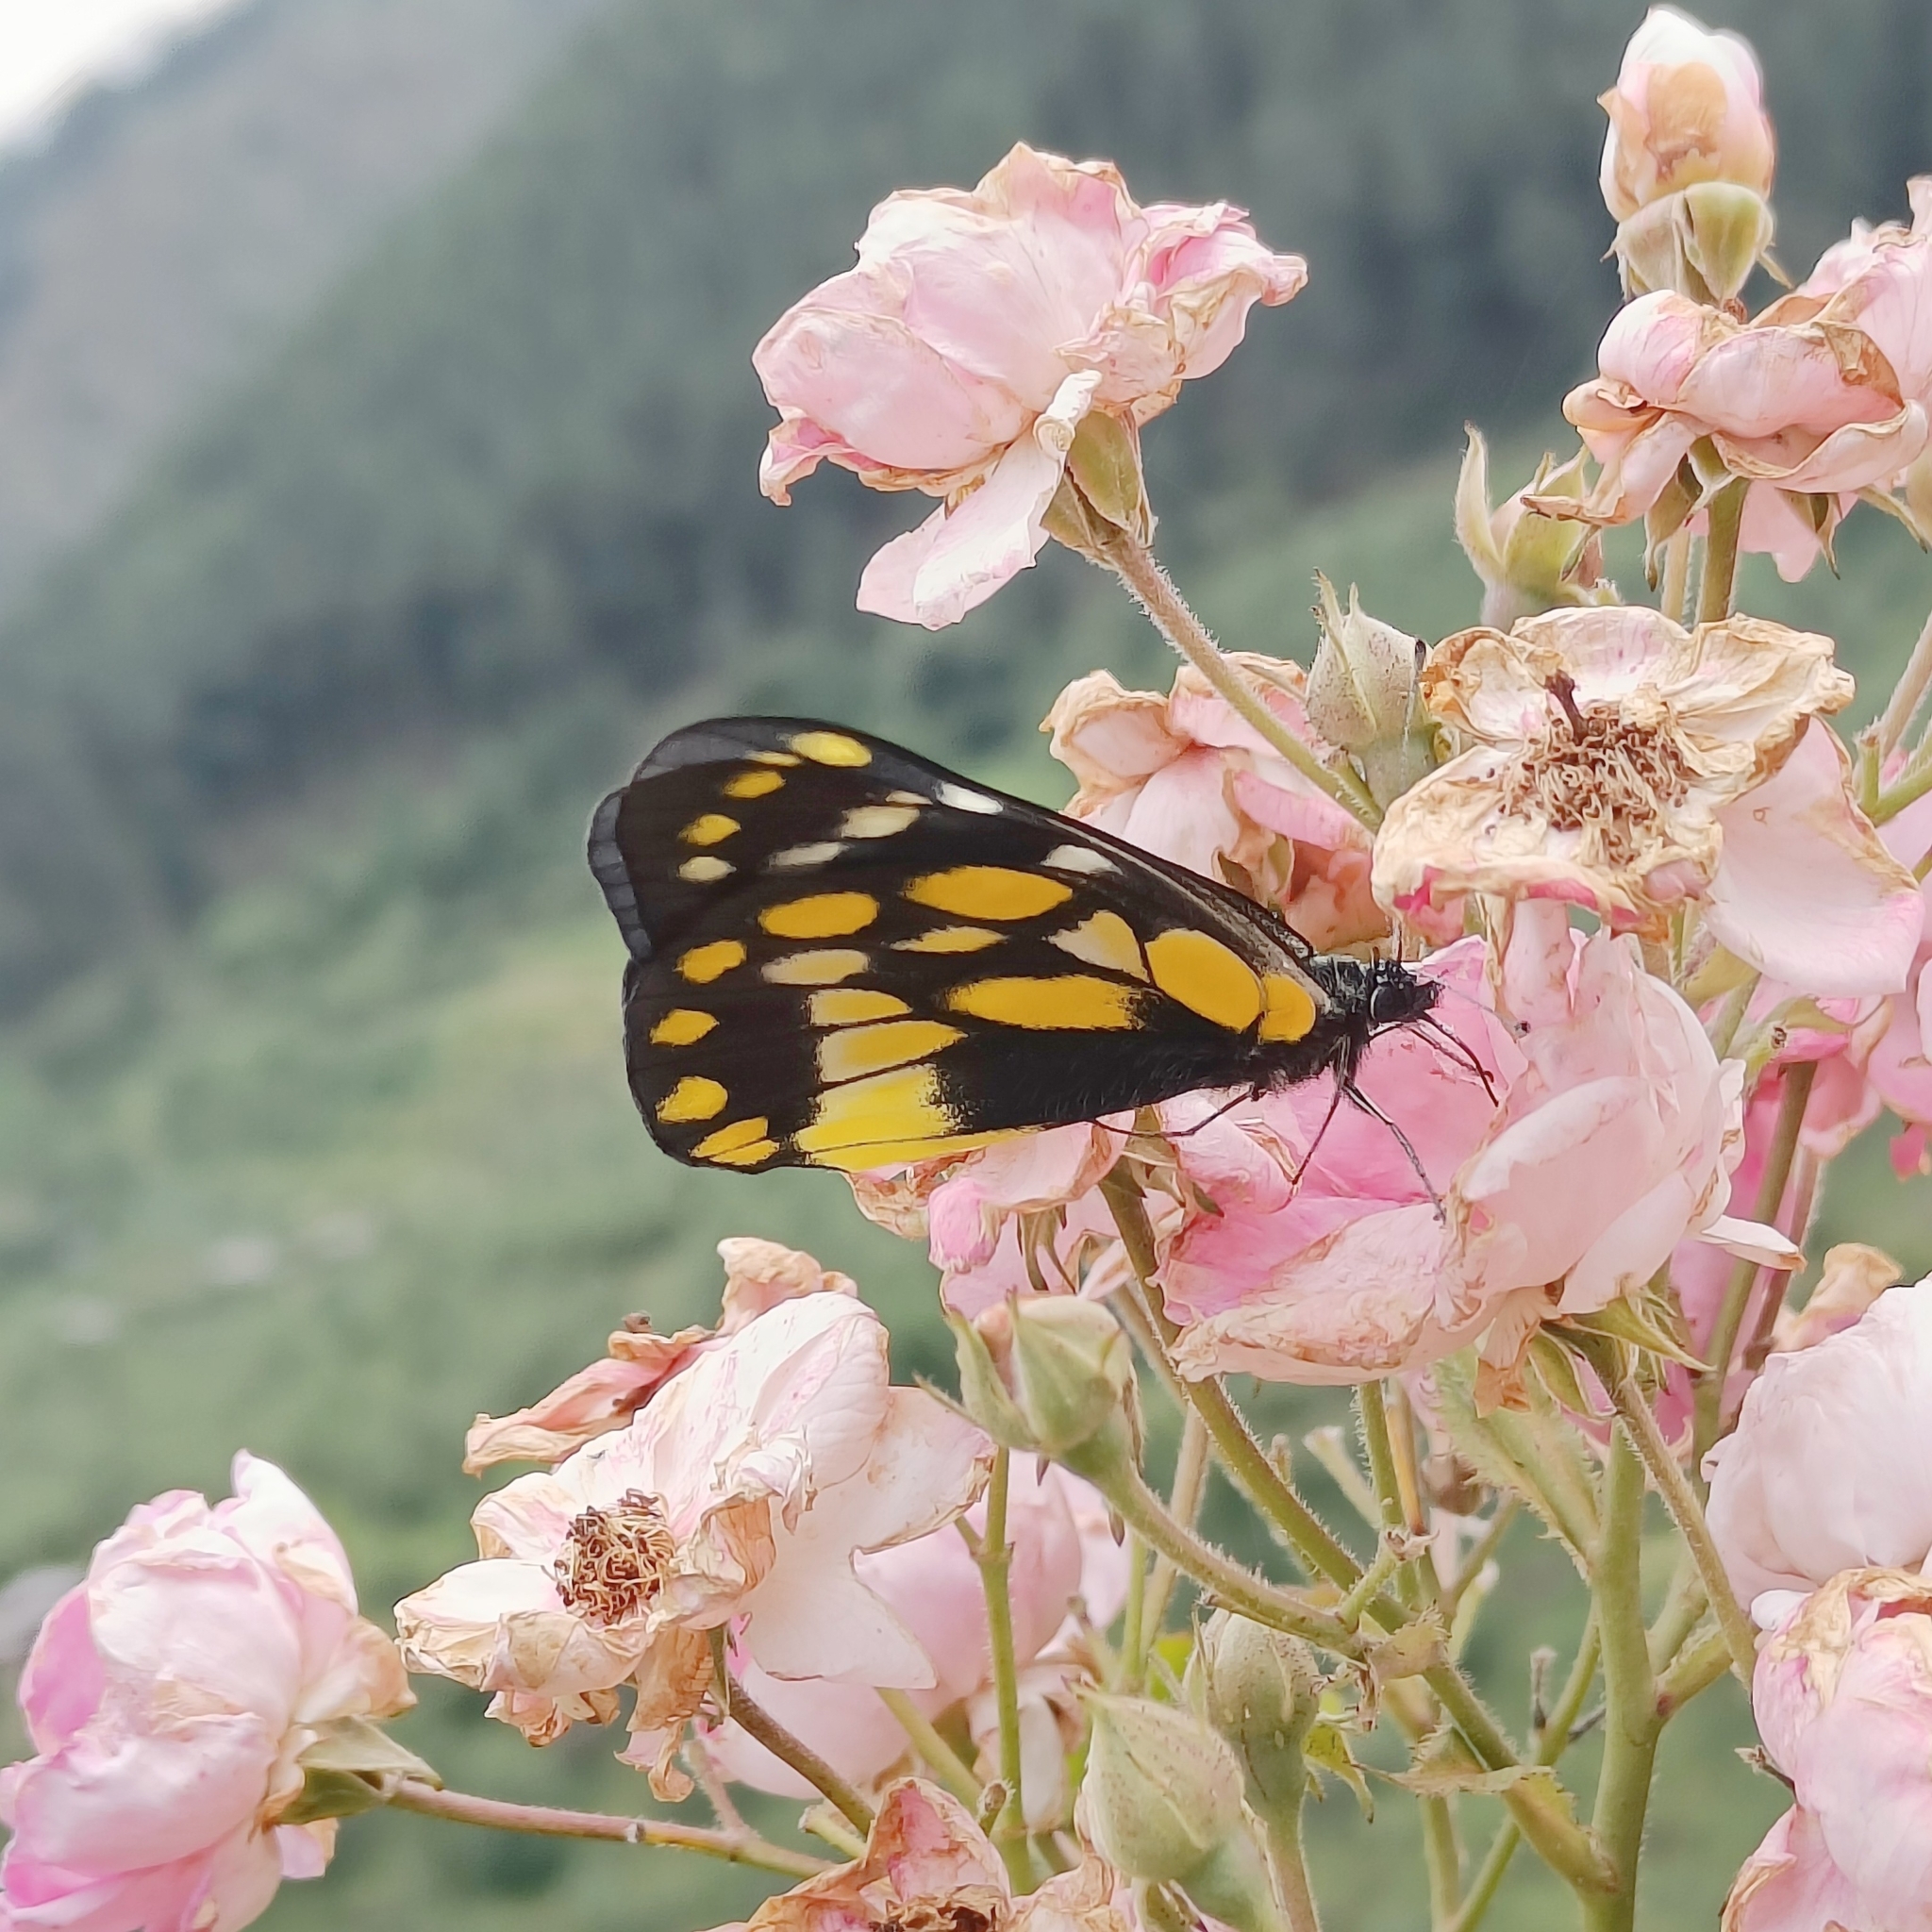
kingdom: Animalia
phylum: Arthropoda
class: Insecta
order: Lepidoptera
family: Pieridae
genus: Delias
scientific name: Delias belladonna
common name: Hill jezebel
